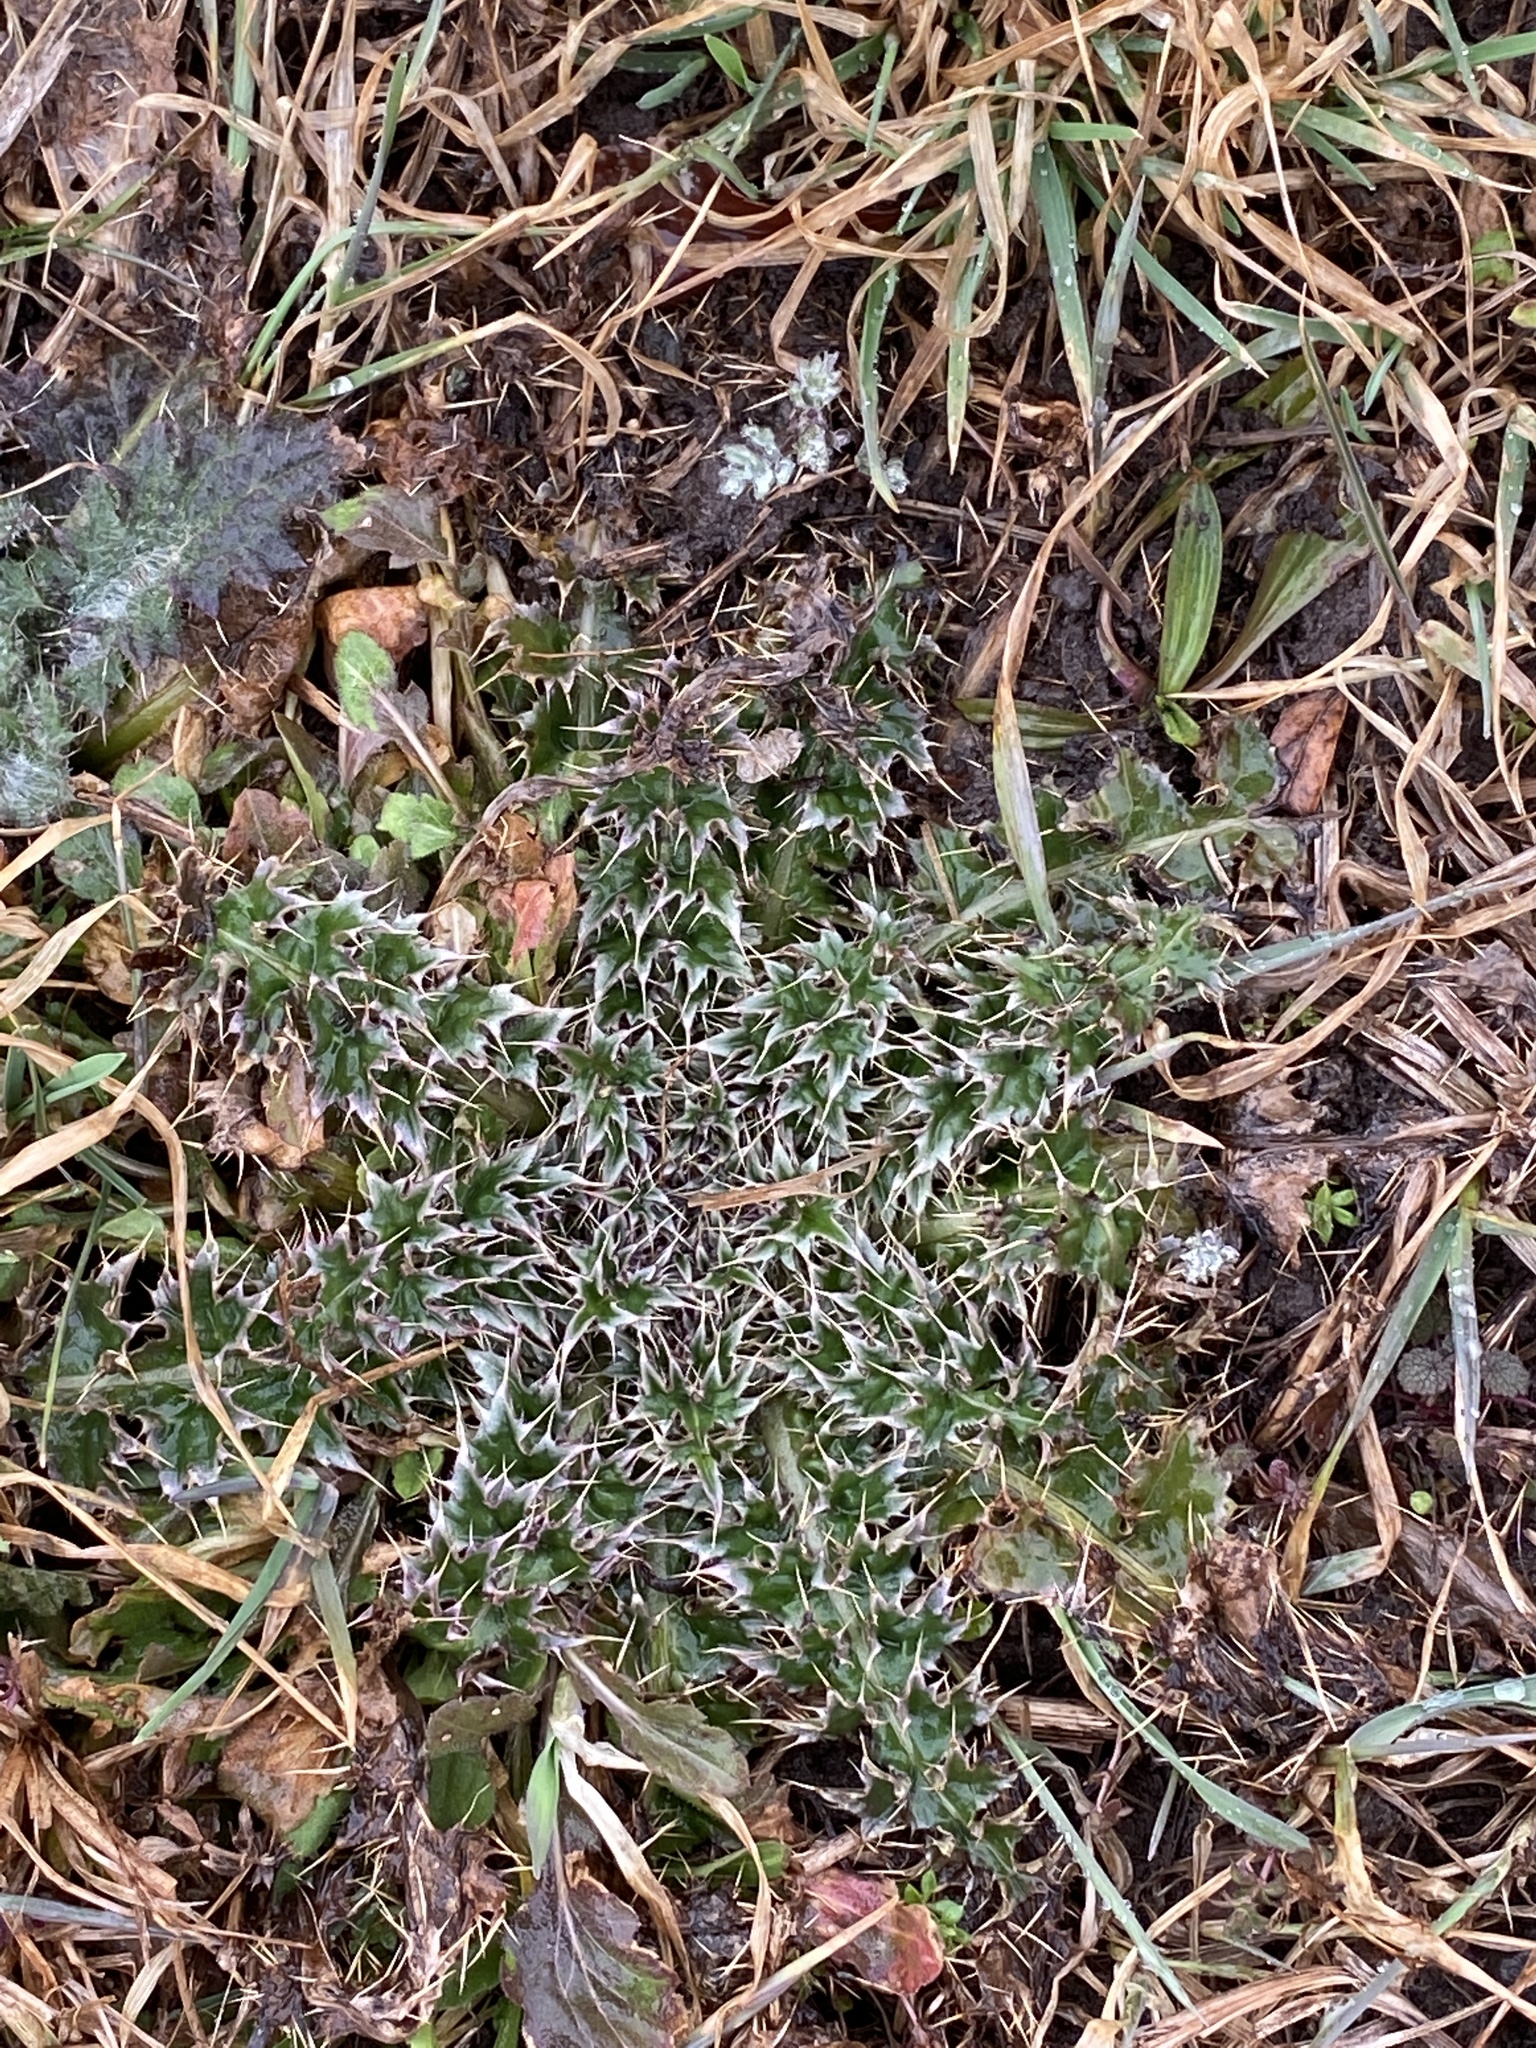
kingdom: Plantae
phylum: Tracheophyta
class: Magnoliopsida
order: Asterales
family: Asteraceae
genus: Carduus
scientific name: Carduus nutans
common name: Musk thistle
